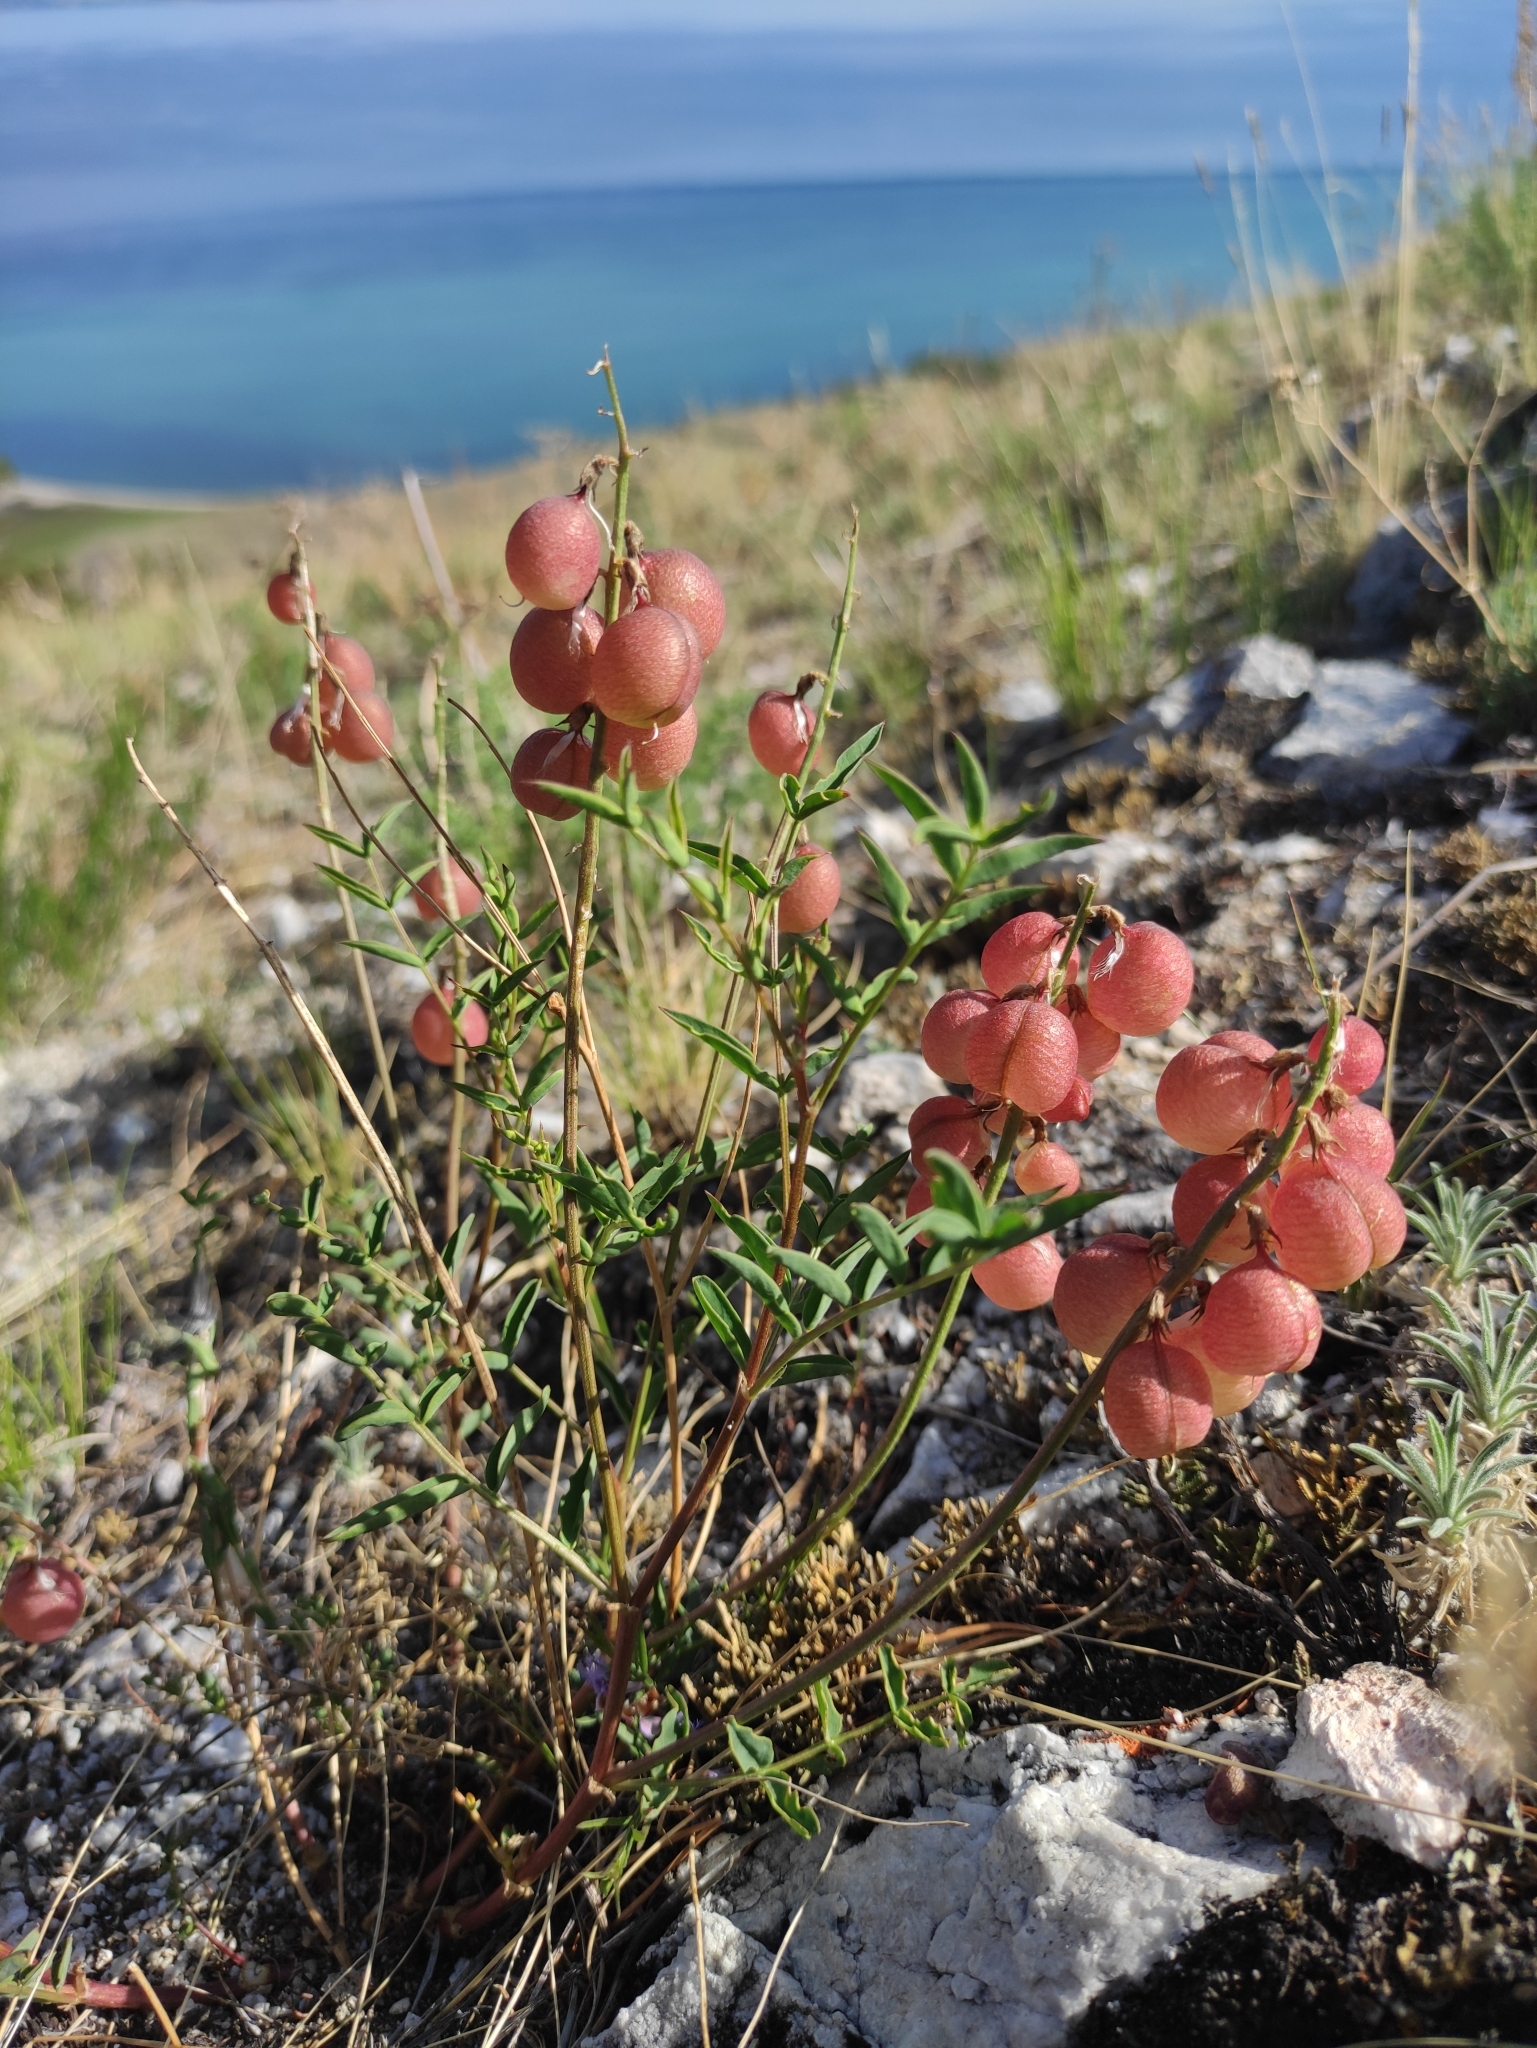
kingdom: Plantae
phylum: Tracheophyta
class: Magnoliopsida
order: Fabales
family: Fabaceae
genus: Astragalus
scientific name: Astragalus chorinensis
